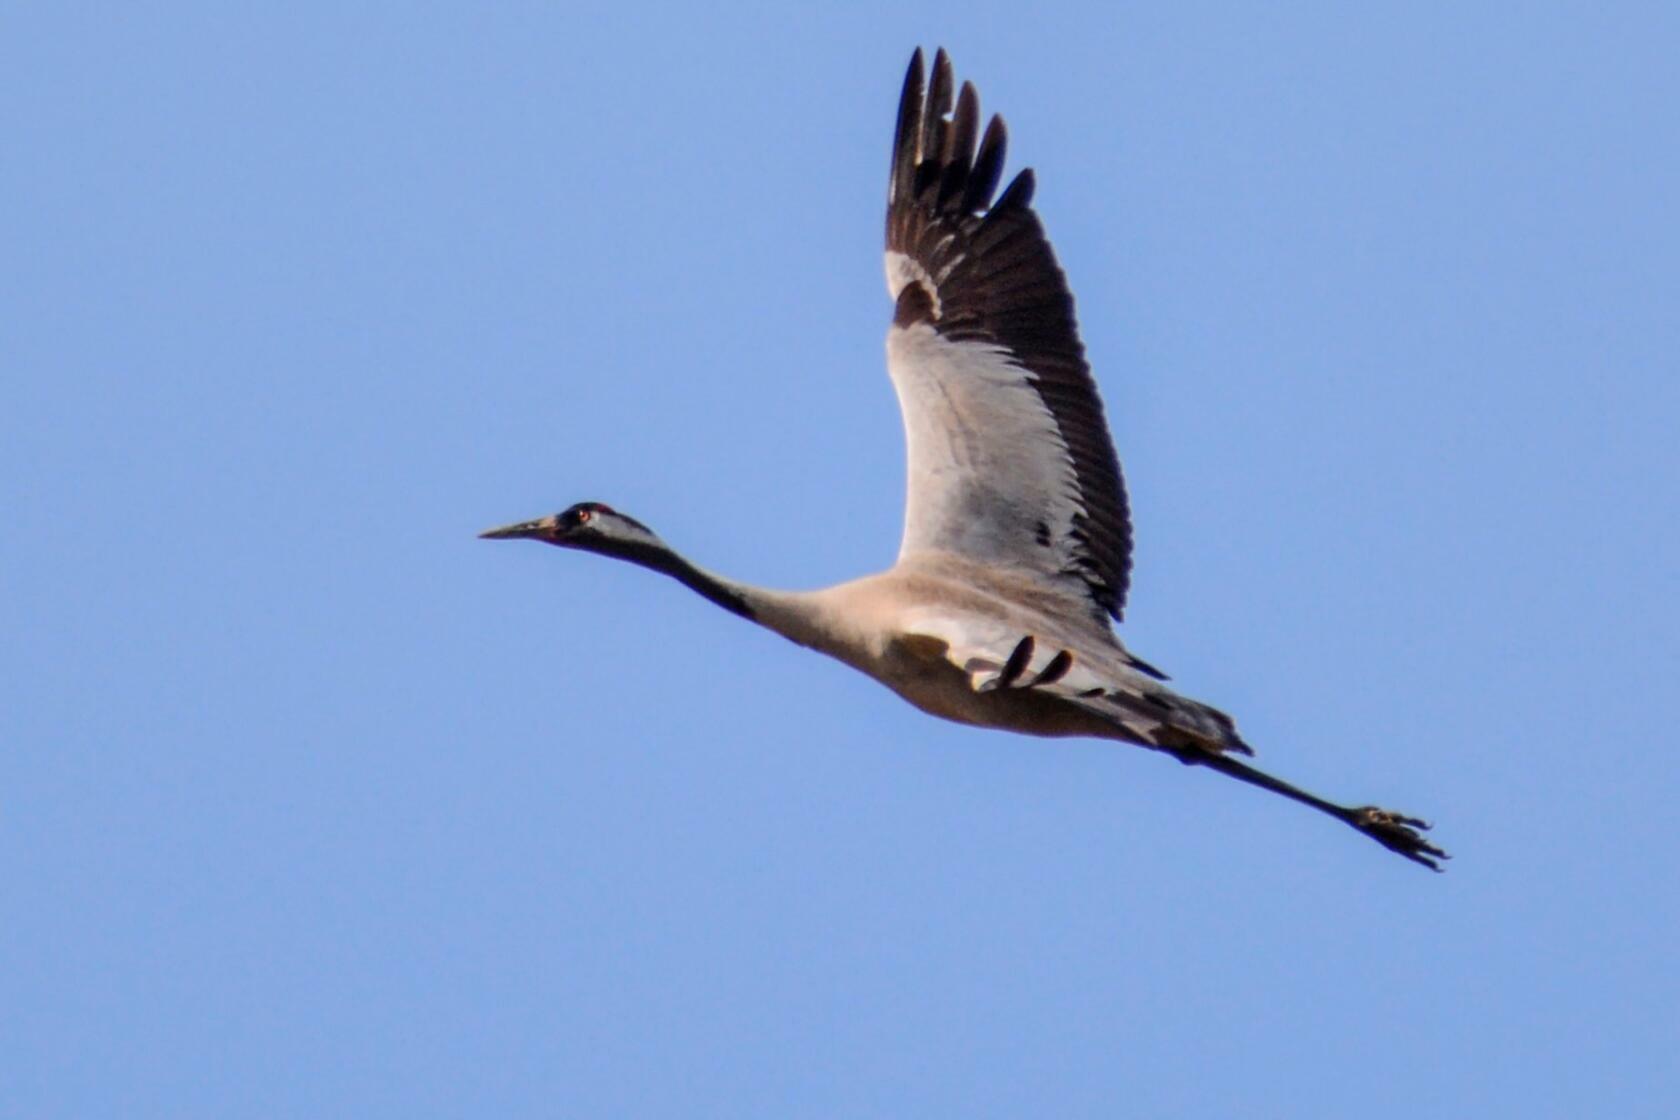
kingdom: Animalia
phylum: Chordata
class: Aves
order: Gruiformes
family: Gruidae
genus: Grus
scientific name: Grus grus
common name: Common crane
